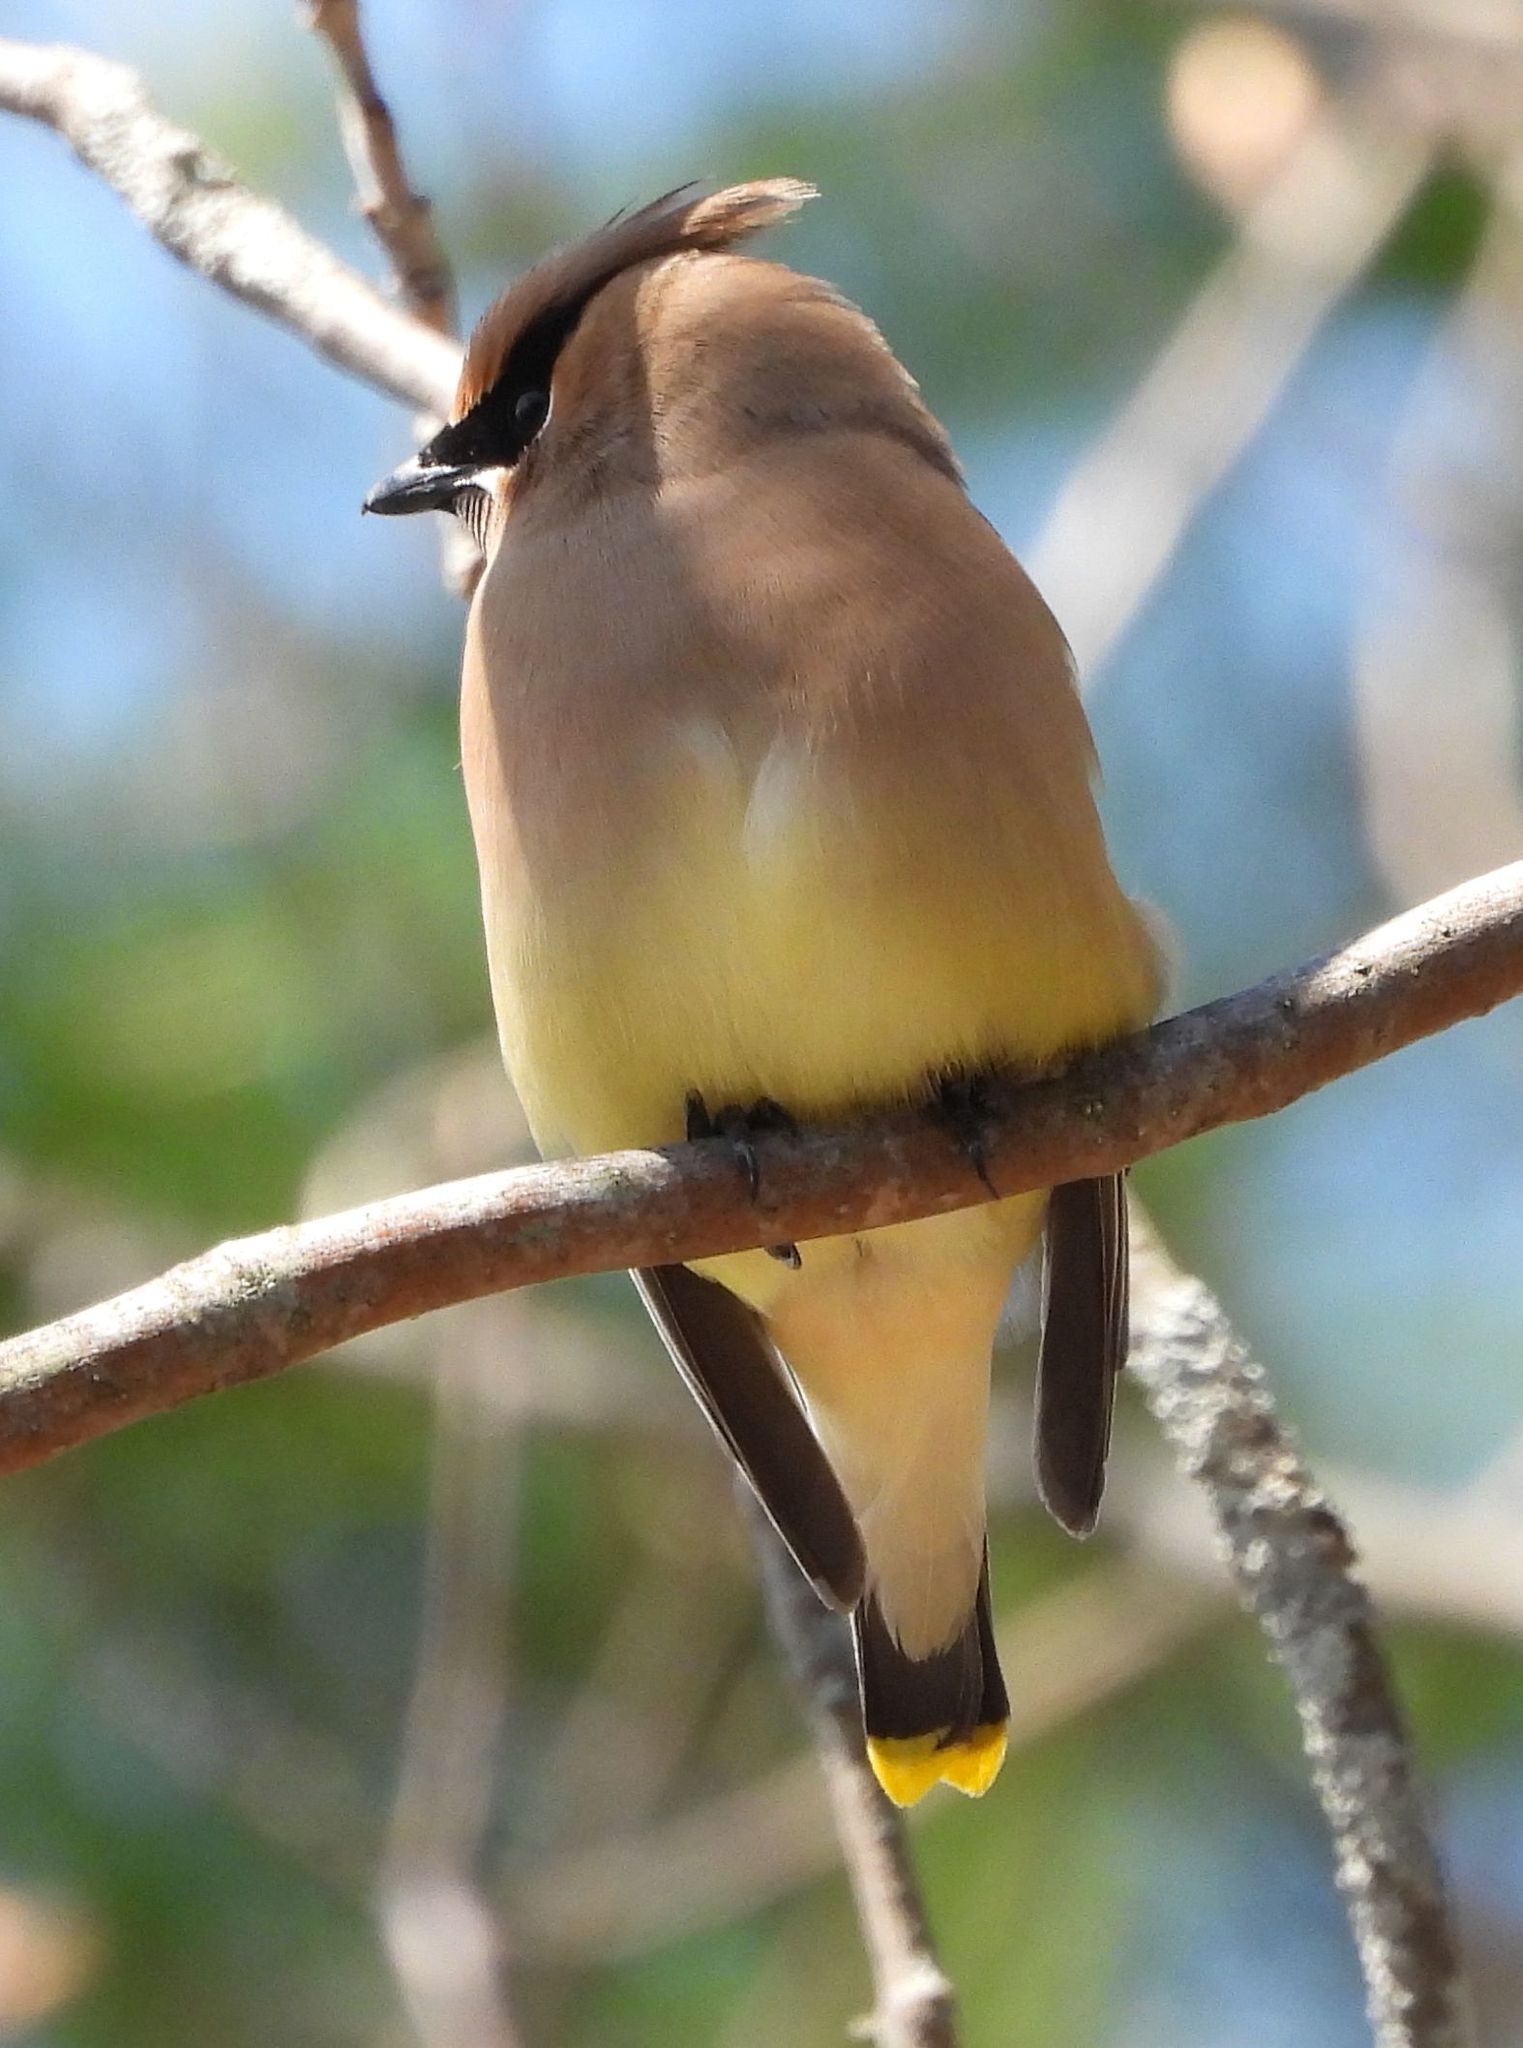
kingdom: Animalia
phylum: Chordata
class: Aves
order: Passeriformes
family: Bombycillidae
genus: Bombycilla
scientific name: Bombycilla cedrorum
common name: Cedar waxwing
